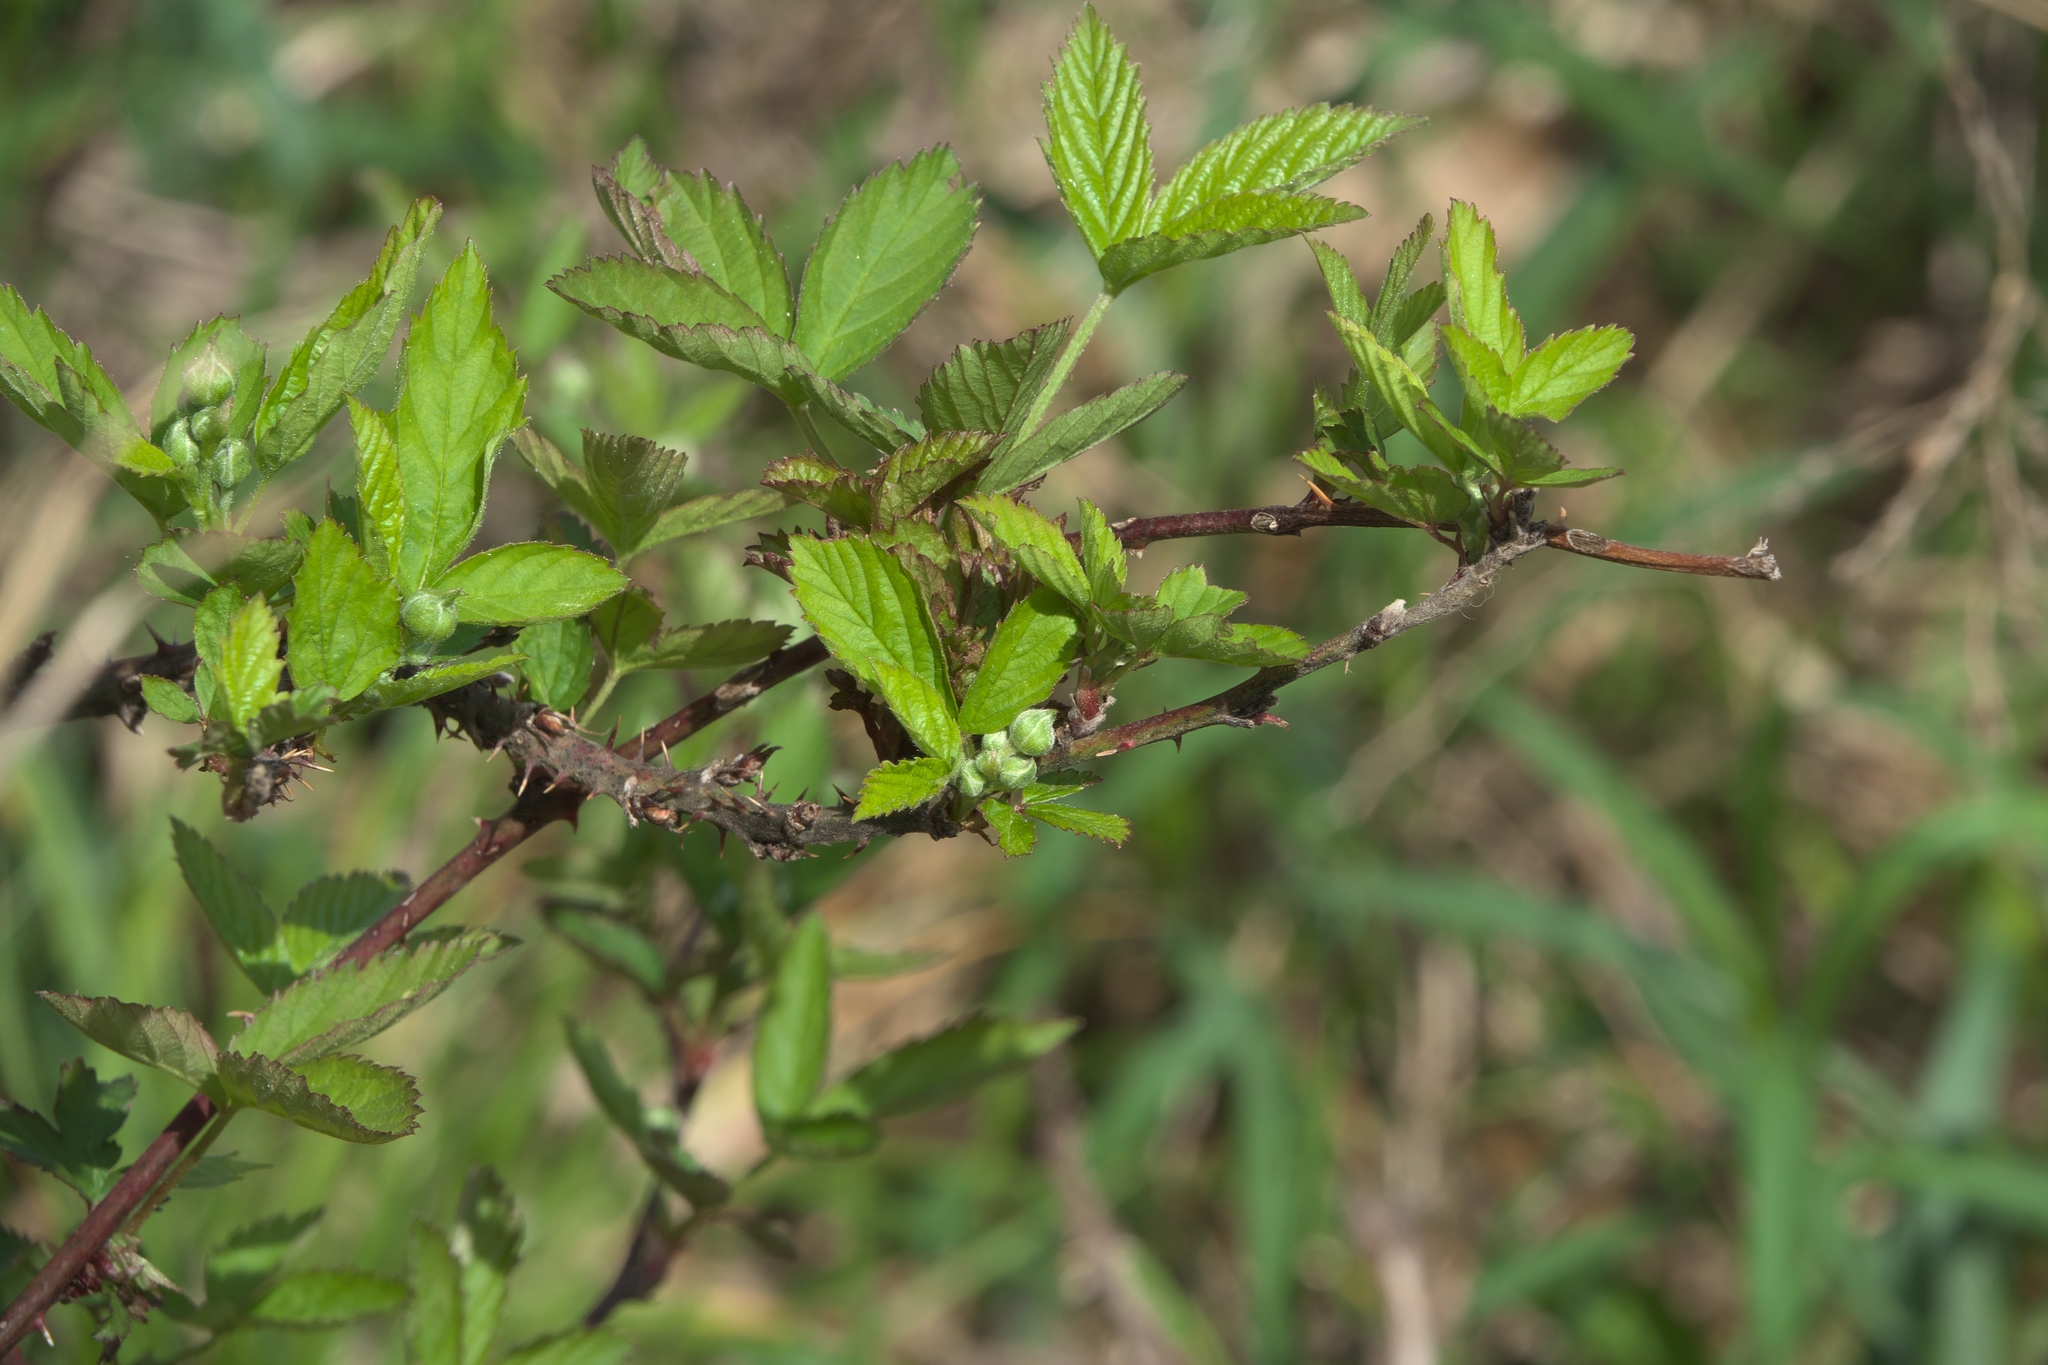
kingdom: Plantae
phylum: Tracheophyta
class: Magnoliopsida
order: Rosales
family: Rosaceae
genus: Rubus
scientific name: Rubus oklahomus
